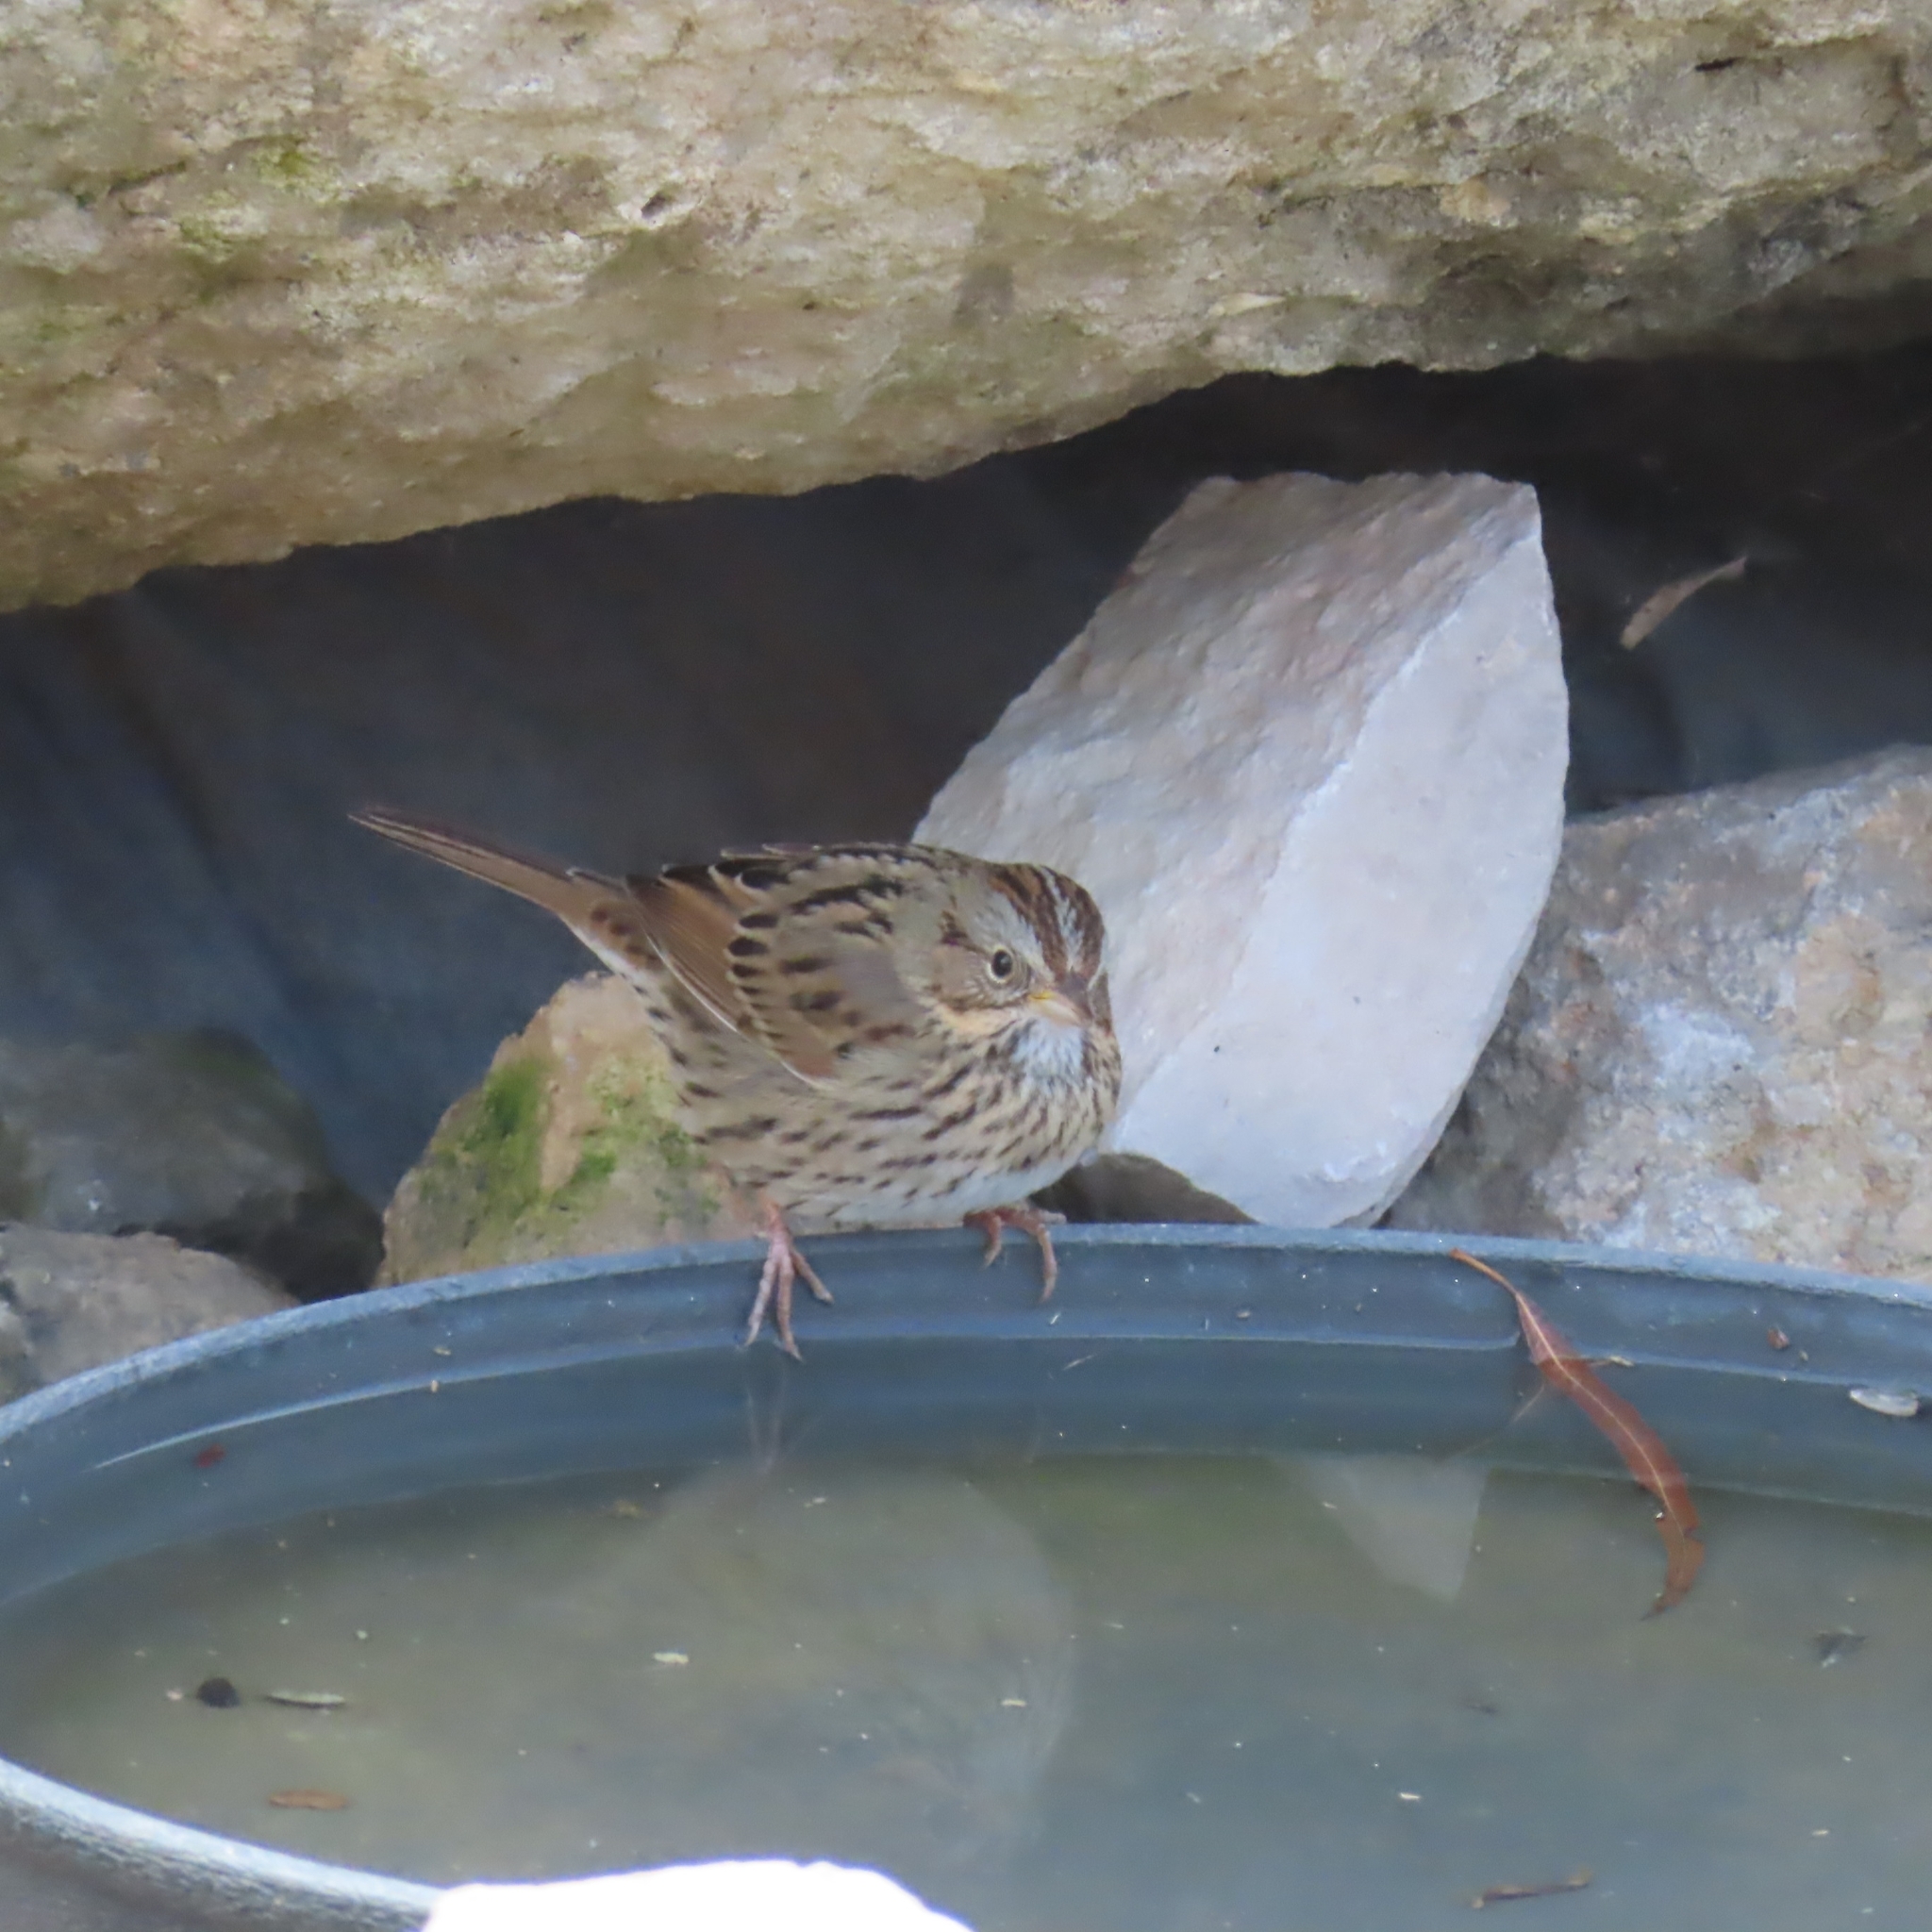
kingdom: Animalia
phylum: Chordata
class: Aves
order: Passeriformes
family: Passerellidae
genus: Melospiza
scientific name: Melospiza lincolnii
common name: Lincoln's sparrow
